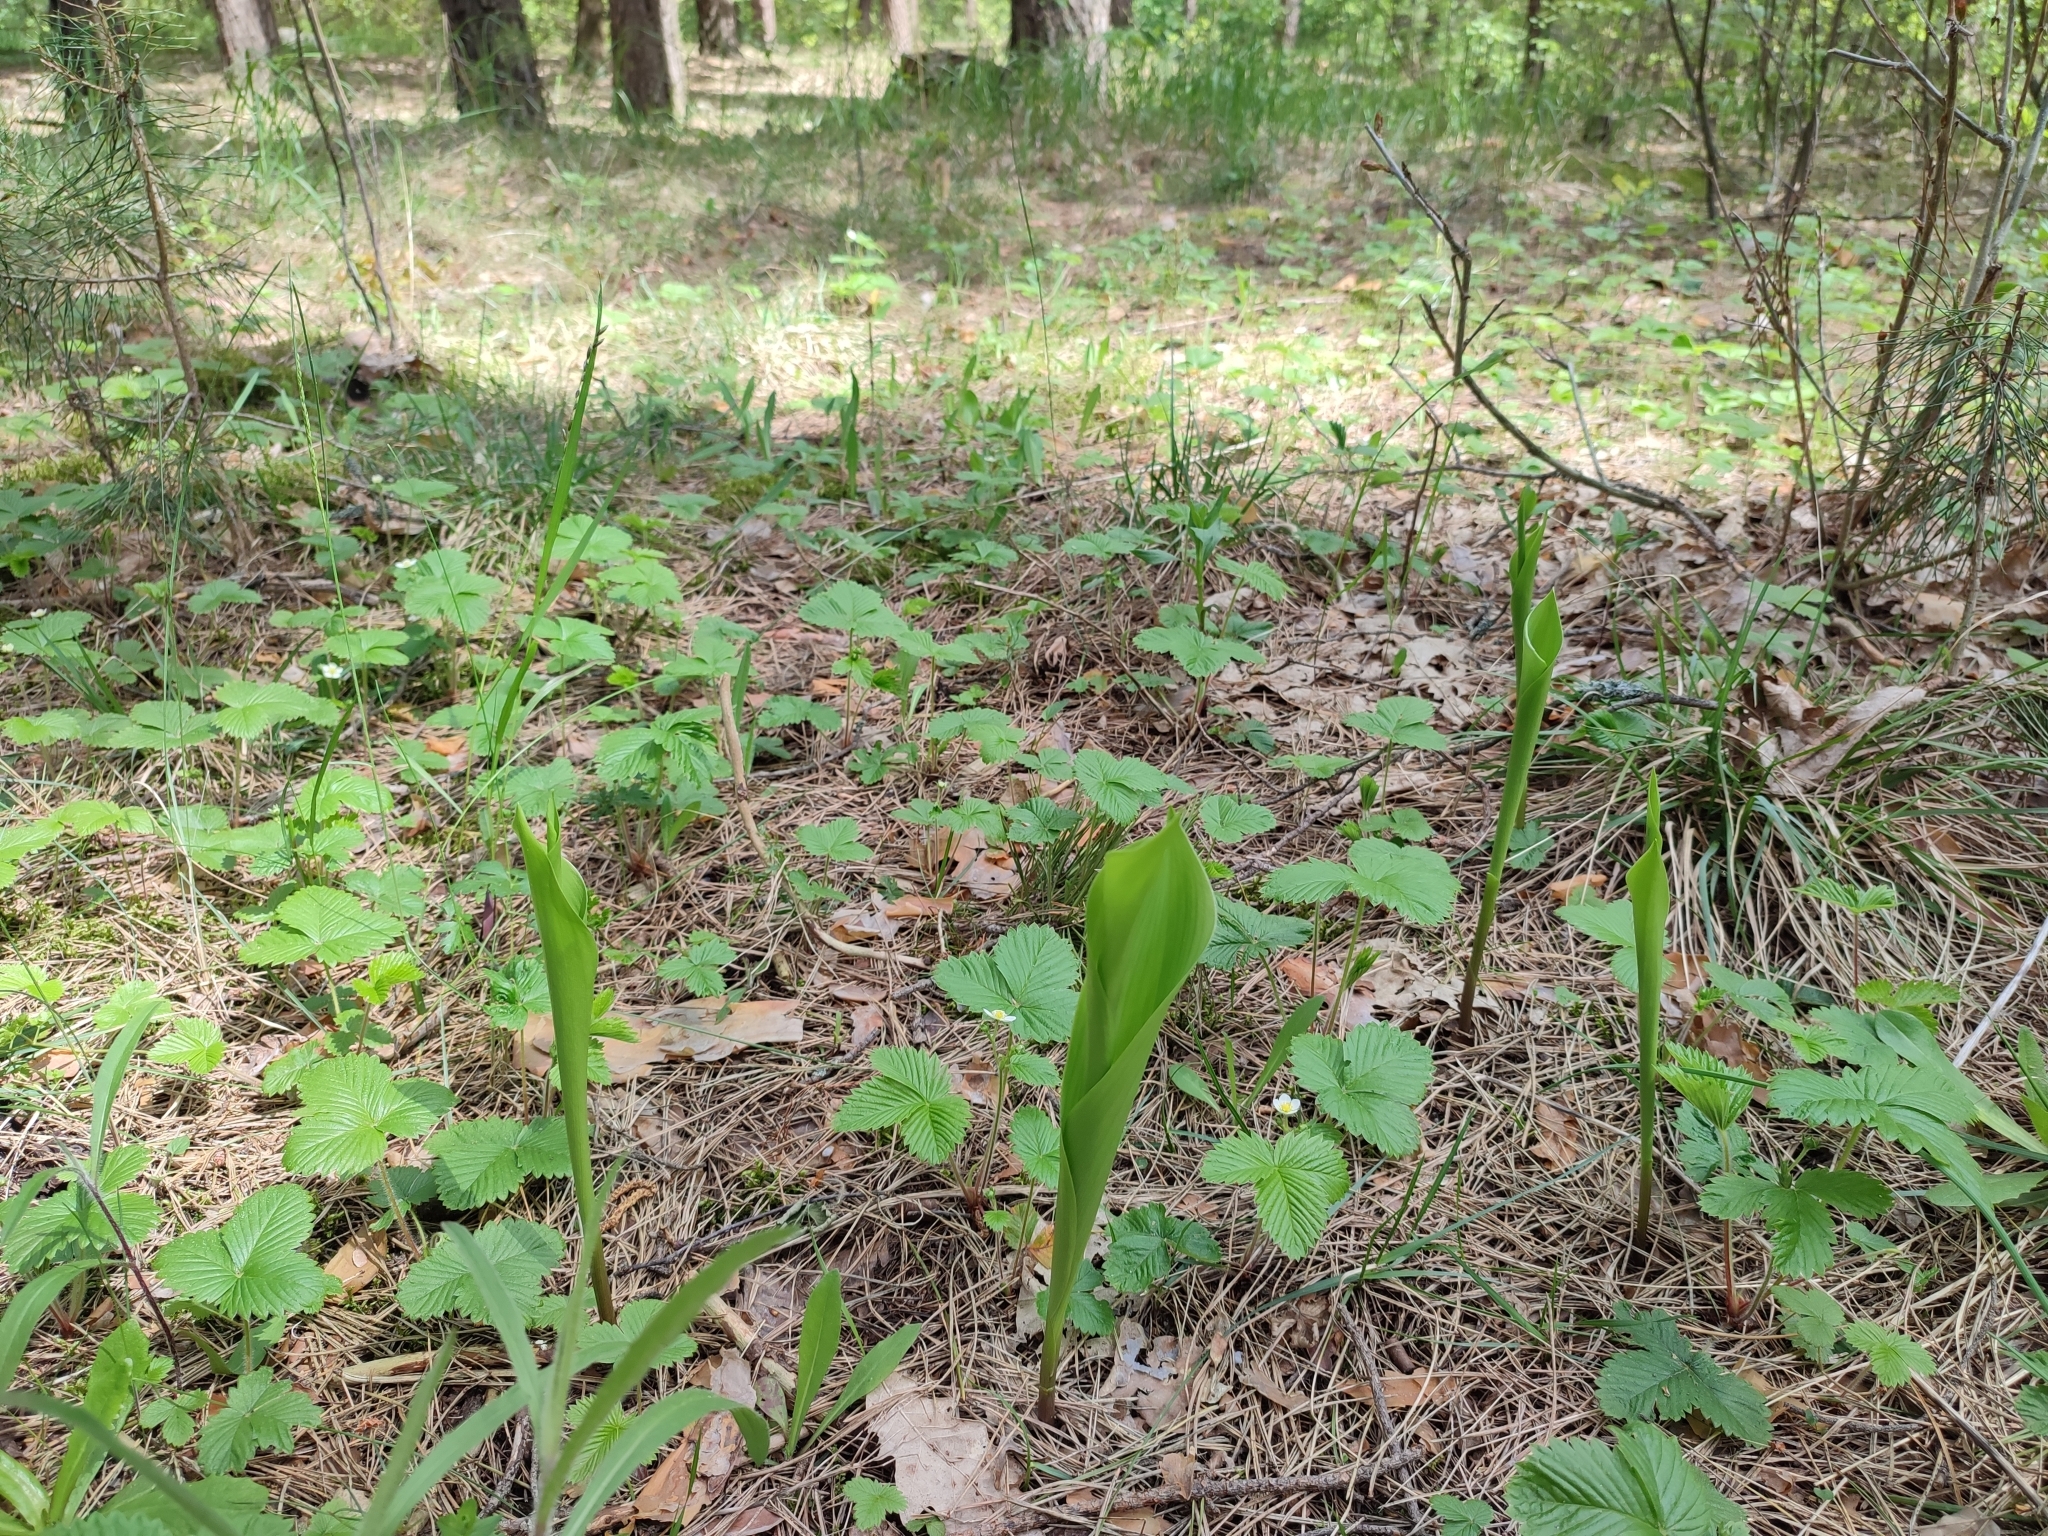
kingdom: Plantae
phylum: Tracheophyta
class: Liliopsida
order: Asparagales
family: Asparagaceae
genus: Convallaria
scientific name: Convallaria majalis
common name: Lily-of-the-valley
